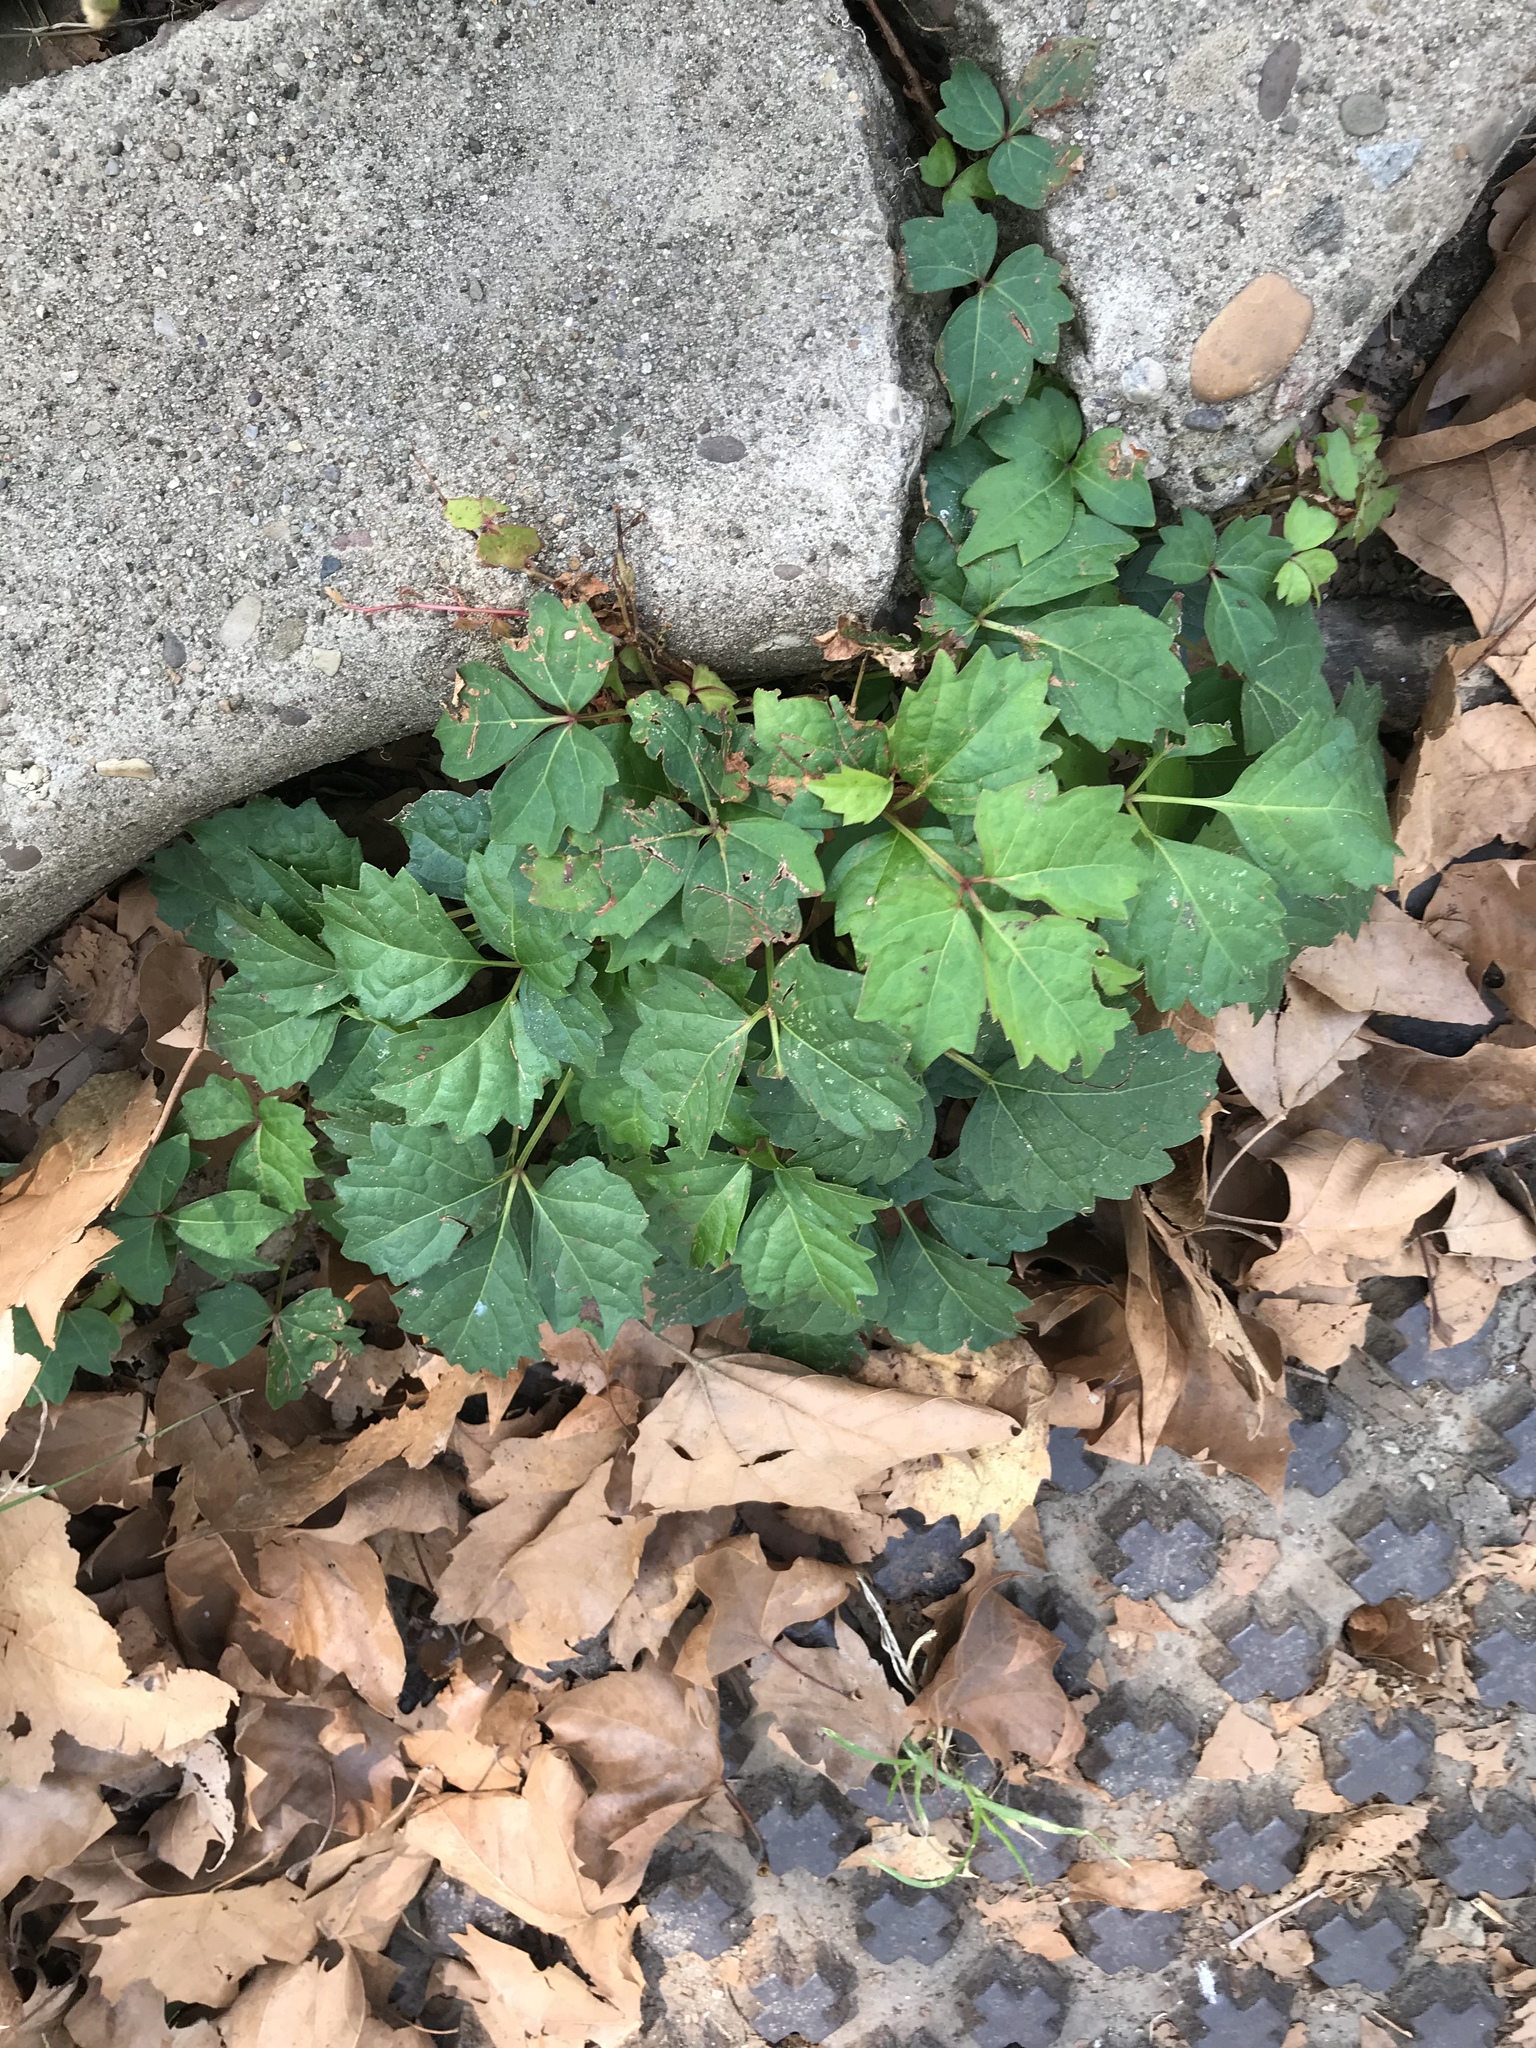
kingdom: Plantae
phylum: Tracheophyta
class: Magnoliopsida
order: Vitales
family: Vitaceae
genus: Parthenocissus
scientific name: Parthenocissus tricuspidata
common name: Boston ivy
